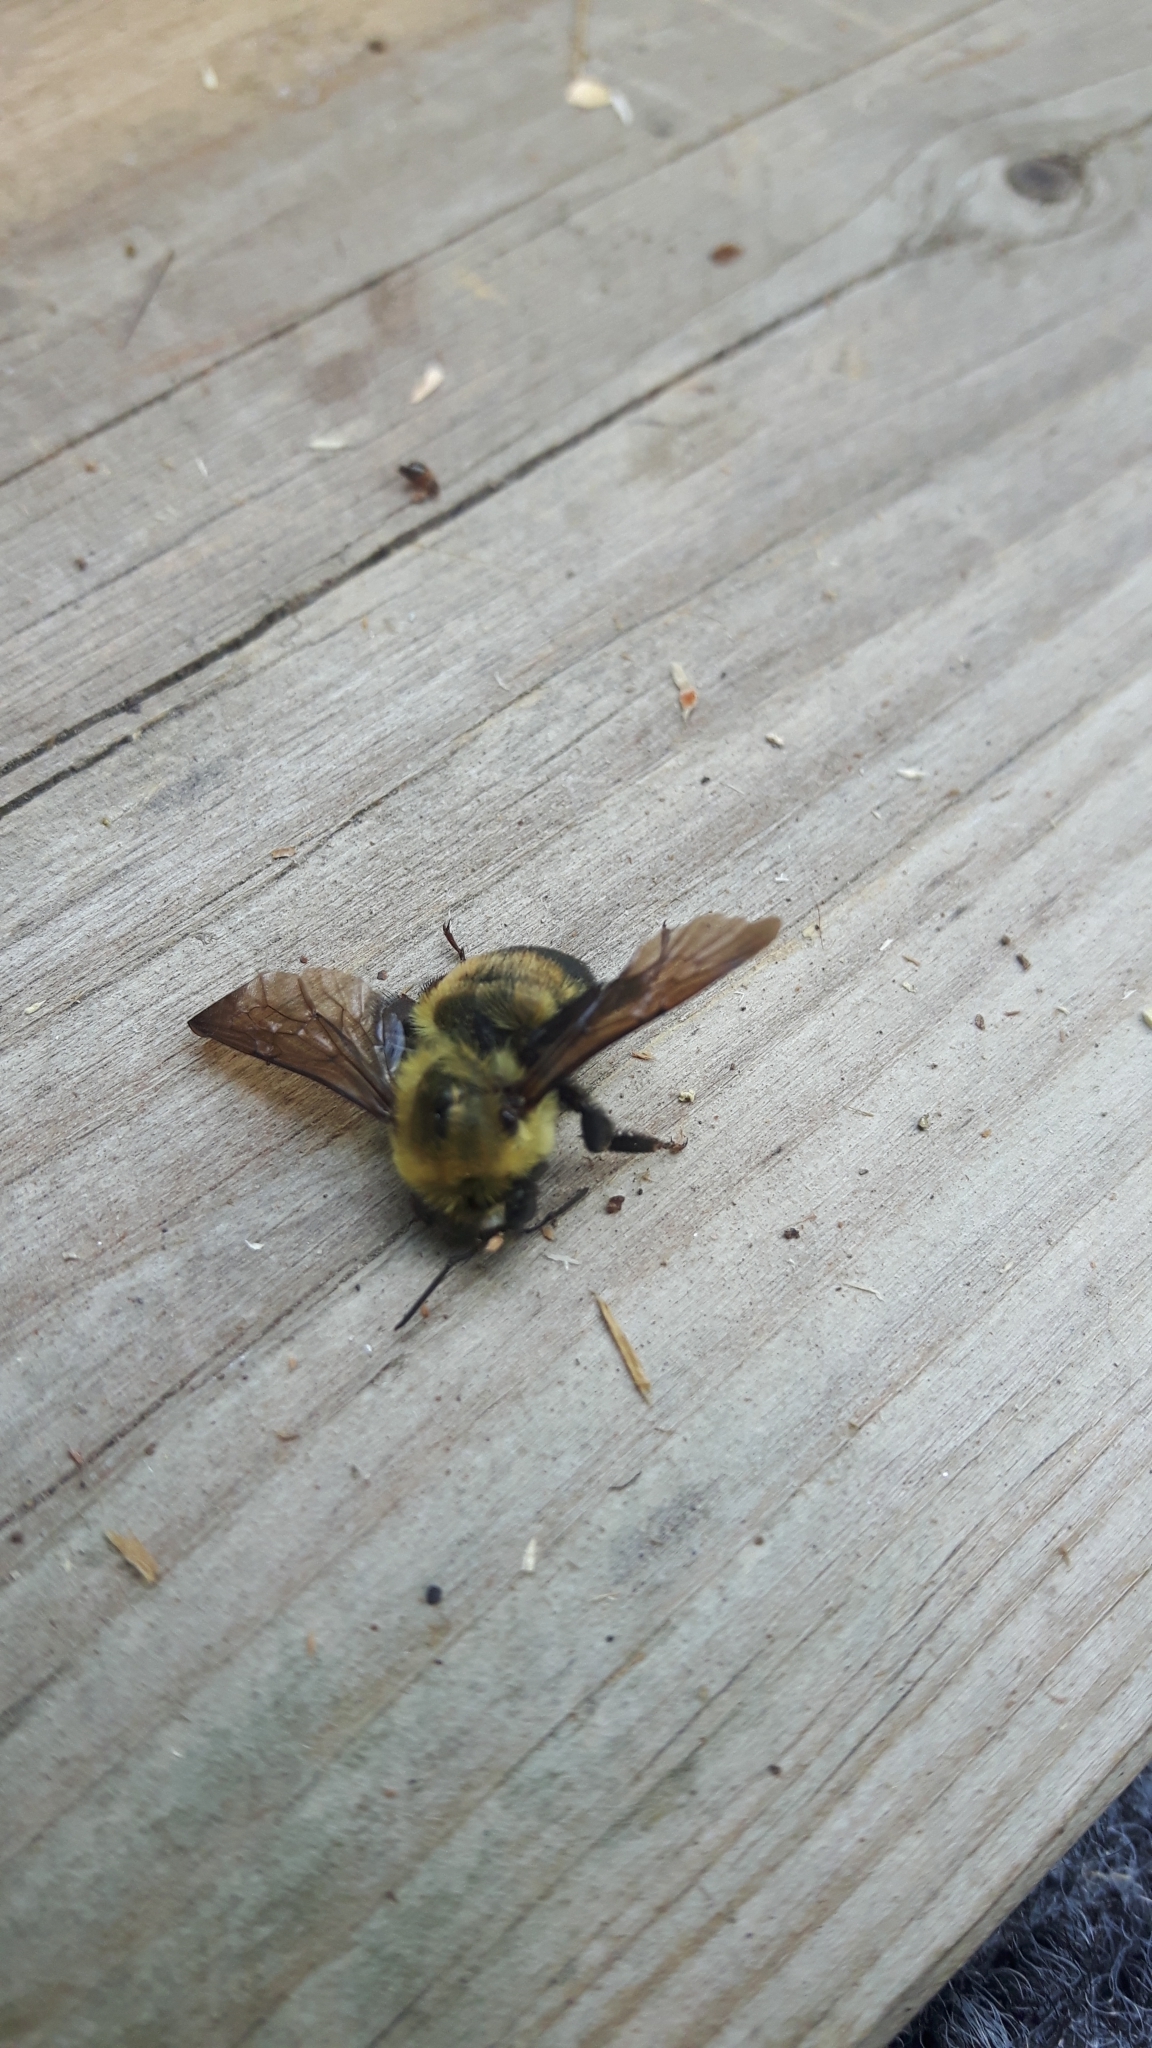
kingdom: Animalia
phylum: Arthropoda
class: Insecta
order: Hymenoptera
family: Apidae
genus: Bombus
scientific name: Bombus griseocollis
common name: Brown-belted bumble bee
